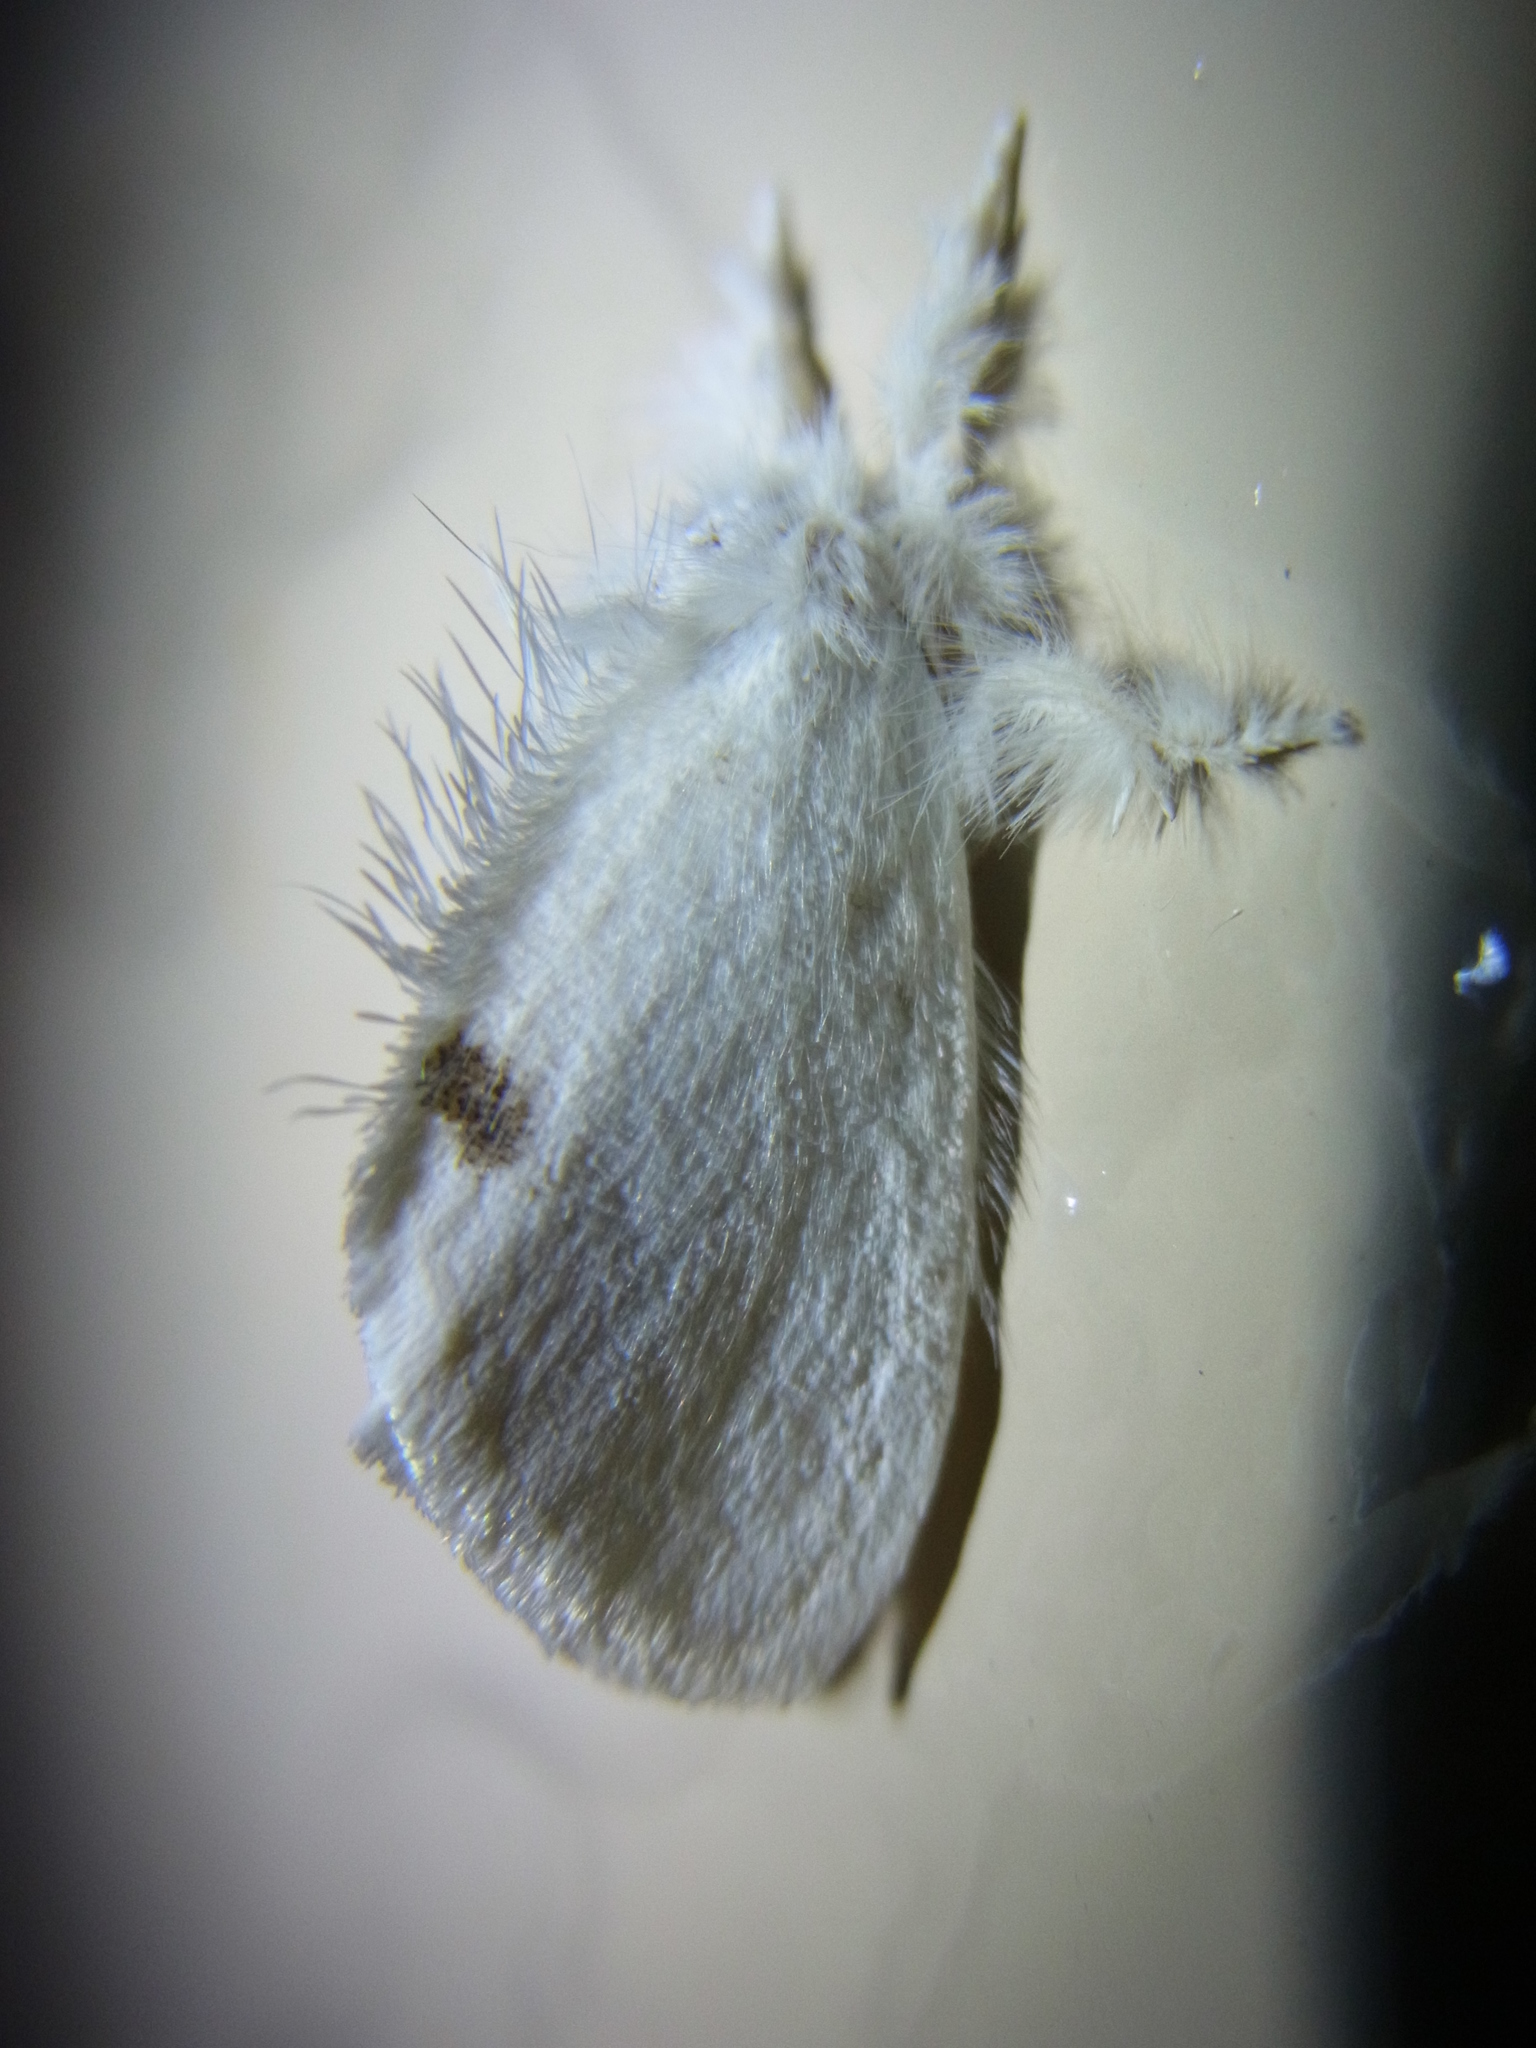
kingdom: Animalia
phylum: Arthropoda
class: Insecta
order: Lepidoptera
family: Erebidae
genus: Sphrageidus
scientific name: Sphrageidus similis
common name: Yellow-tail
